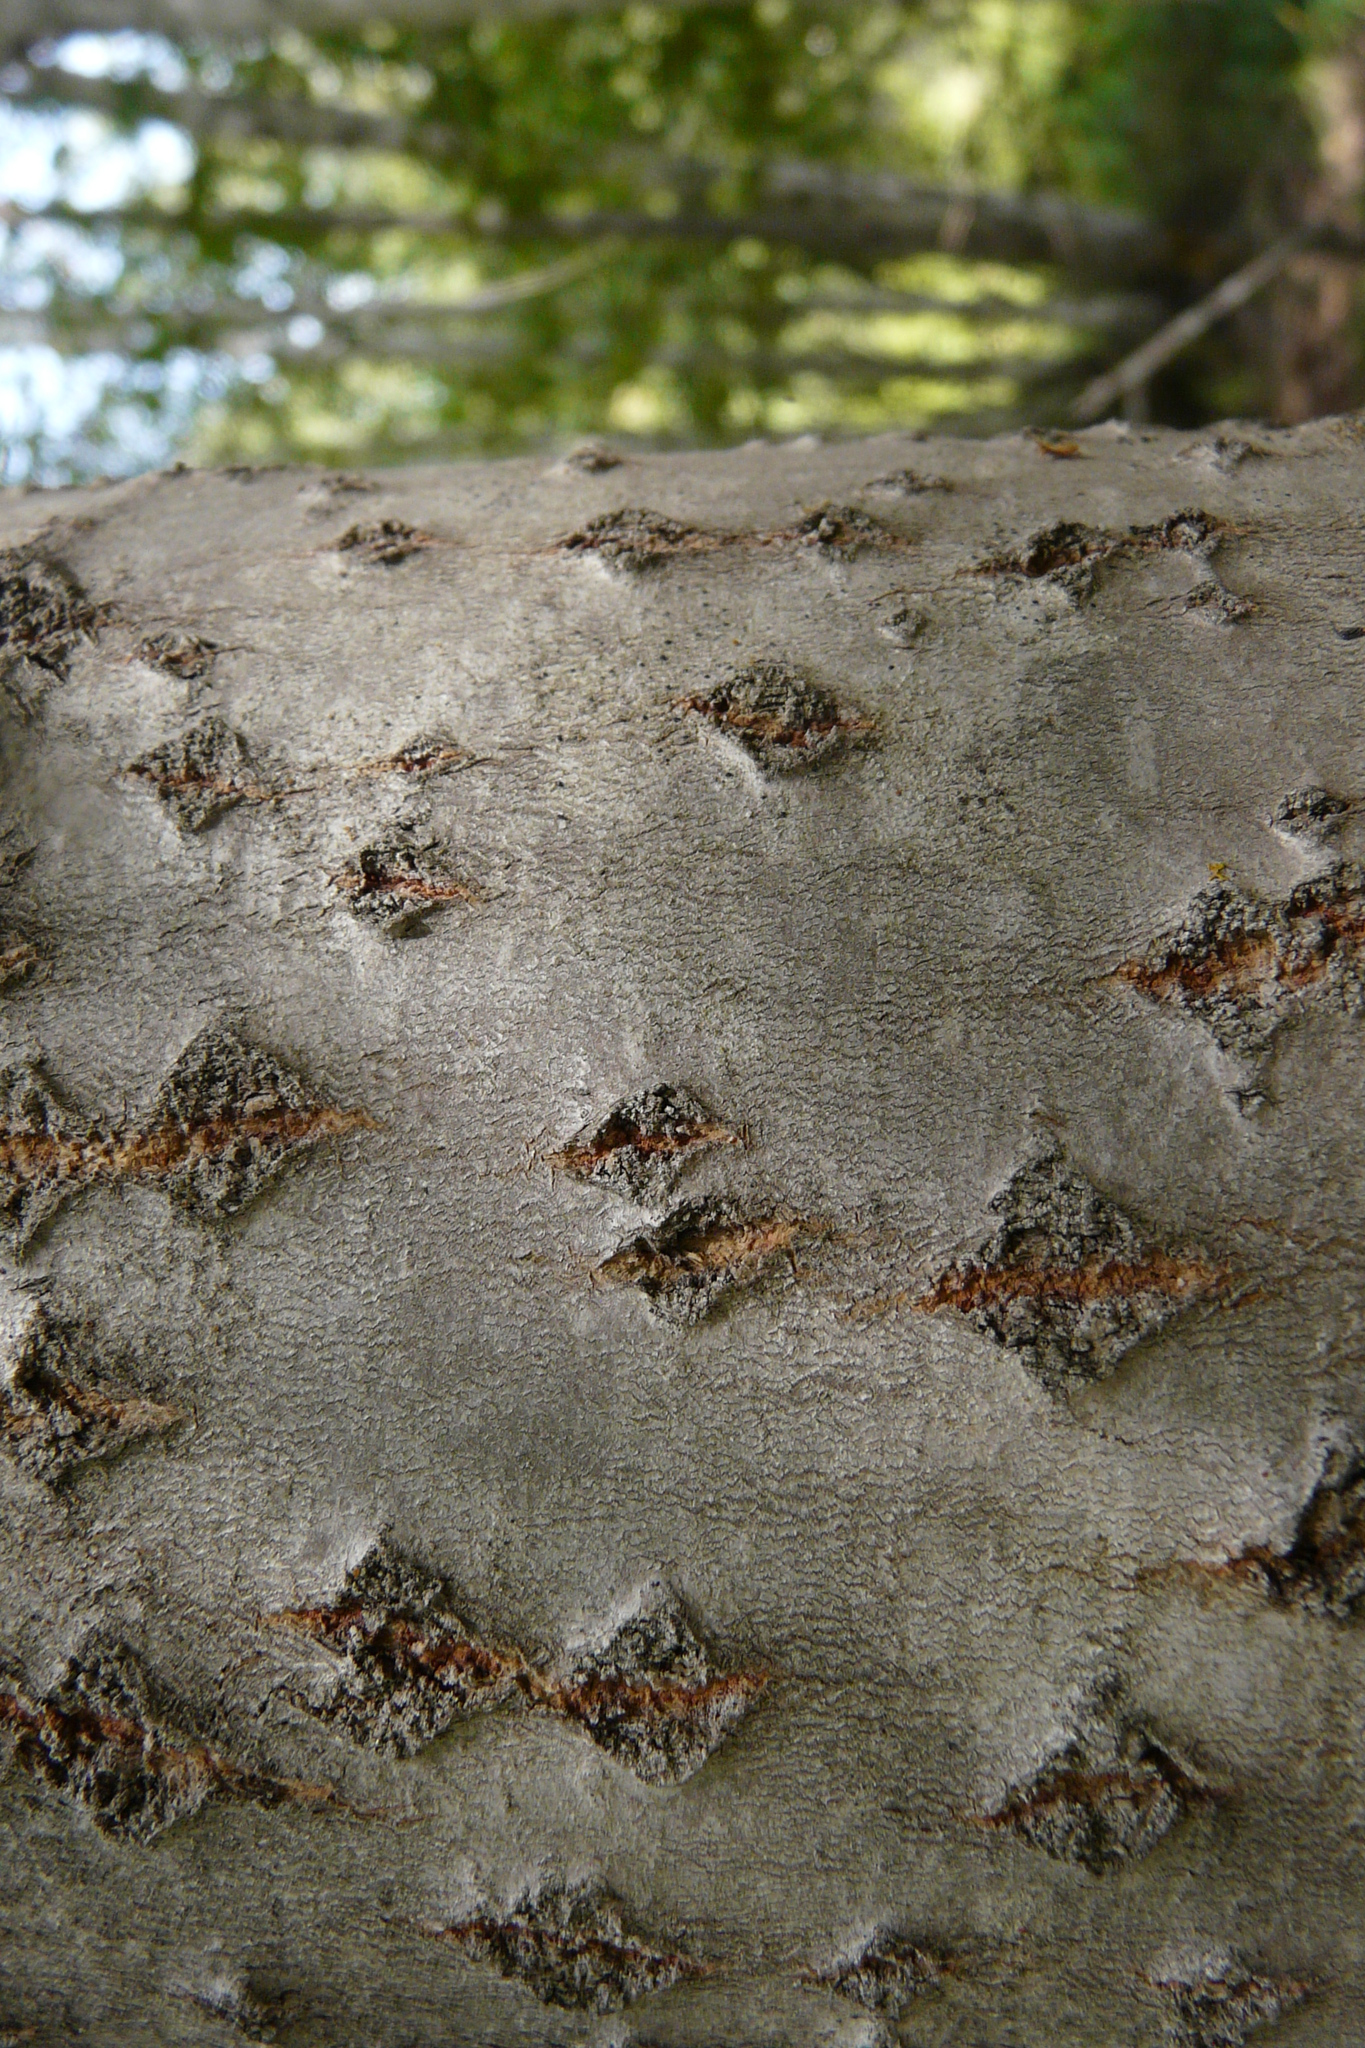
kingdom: Plantae
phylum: Tracheophyta
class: Magnoliopsida
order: Malpighiales
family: Salicaceae
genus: Populus
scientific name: Populus tremula
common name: European aspen
